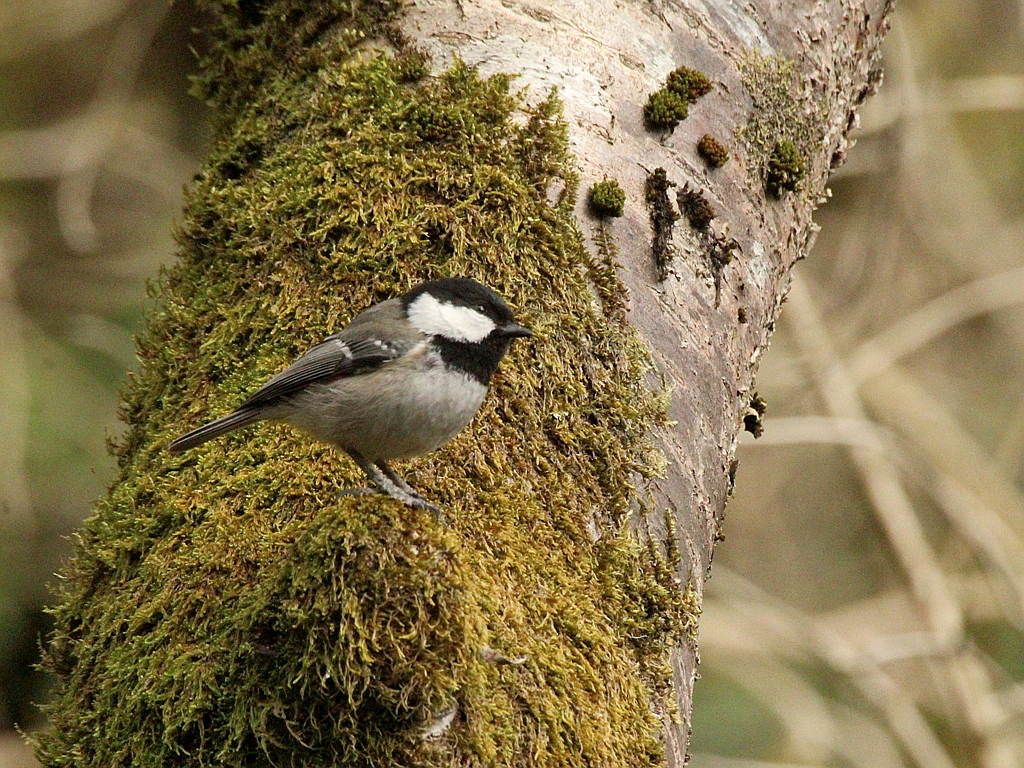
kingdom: Animalia
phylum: Chordata
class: Aves
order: Passeriformes
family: Paridae
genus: Periparus
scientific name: Periparus ater
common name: Coal tit
